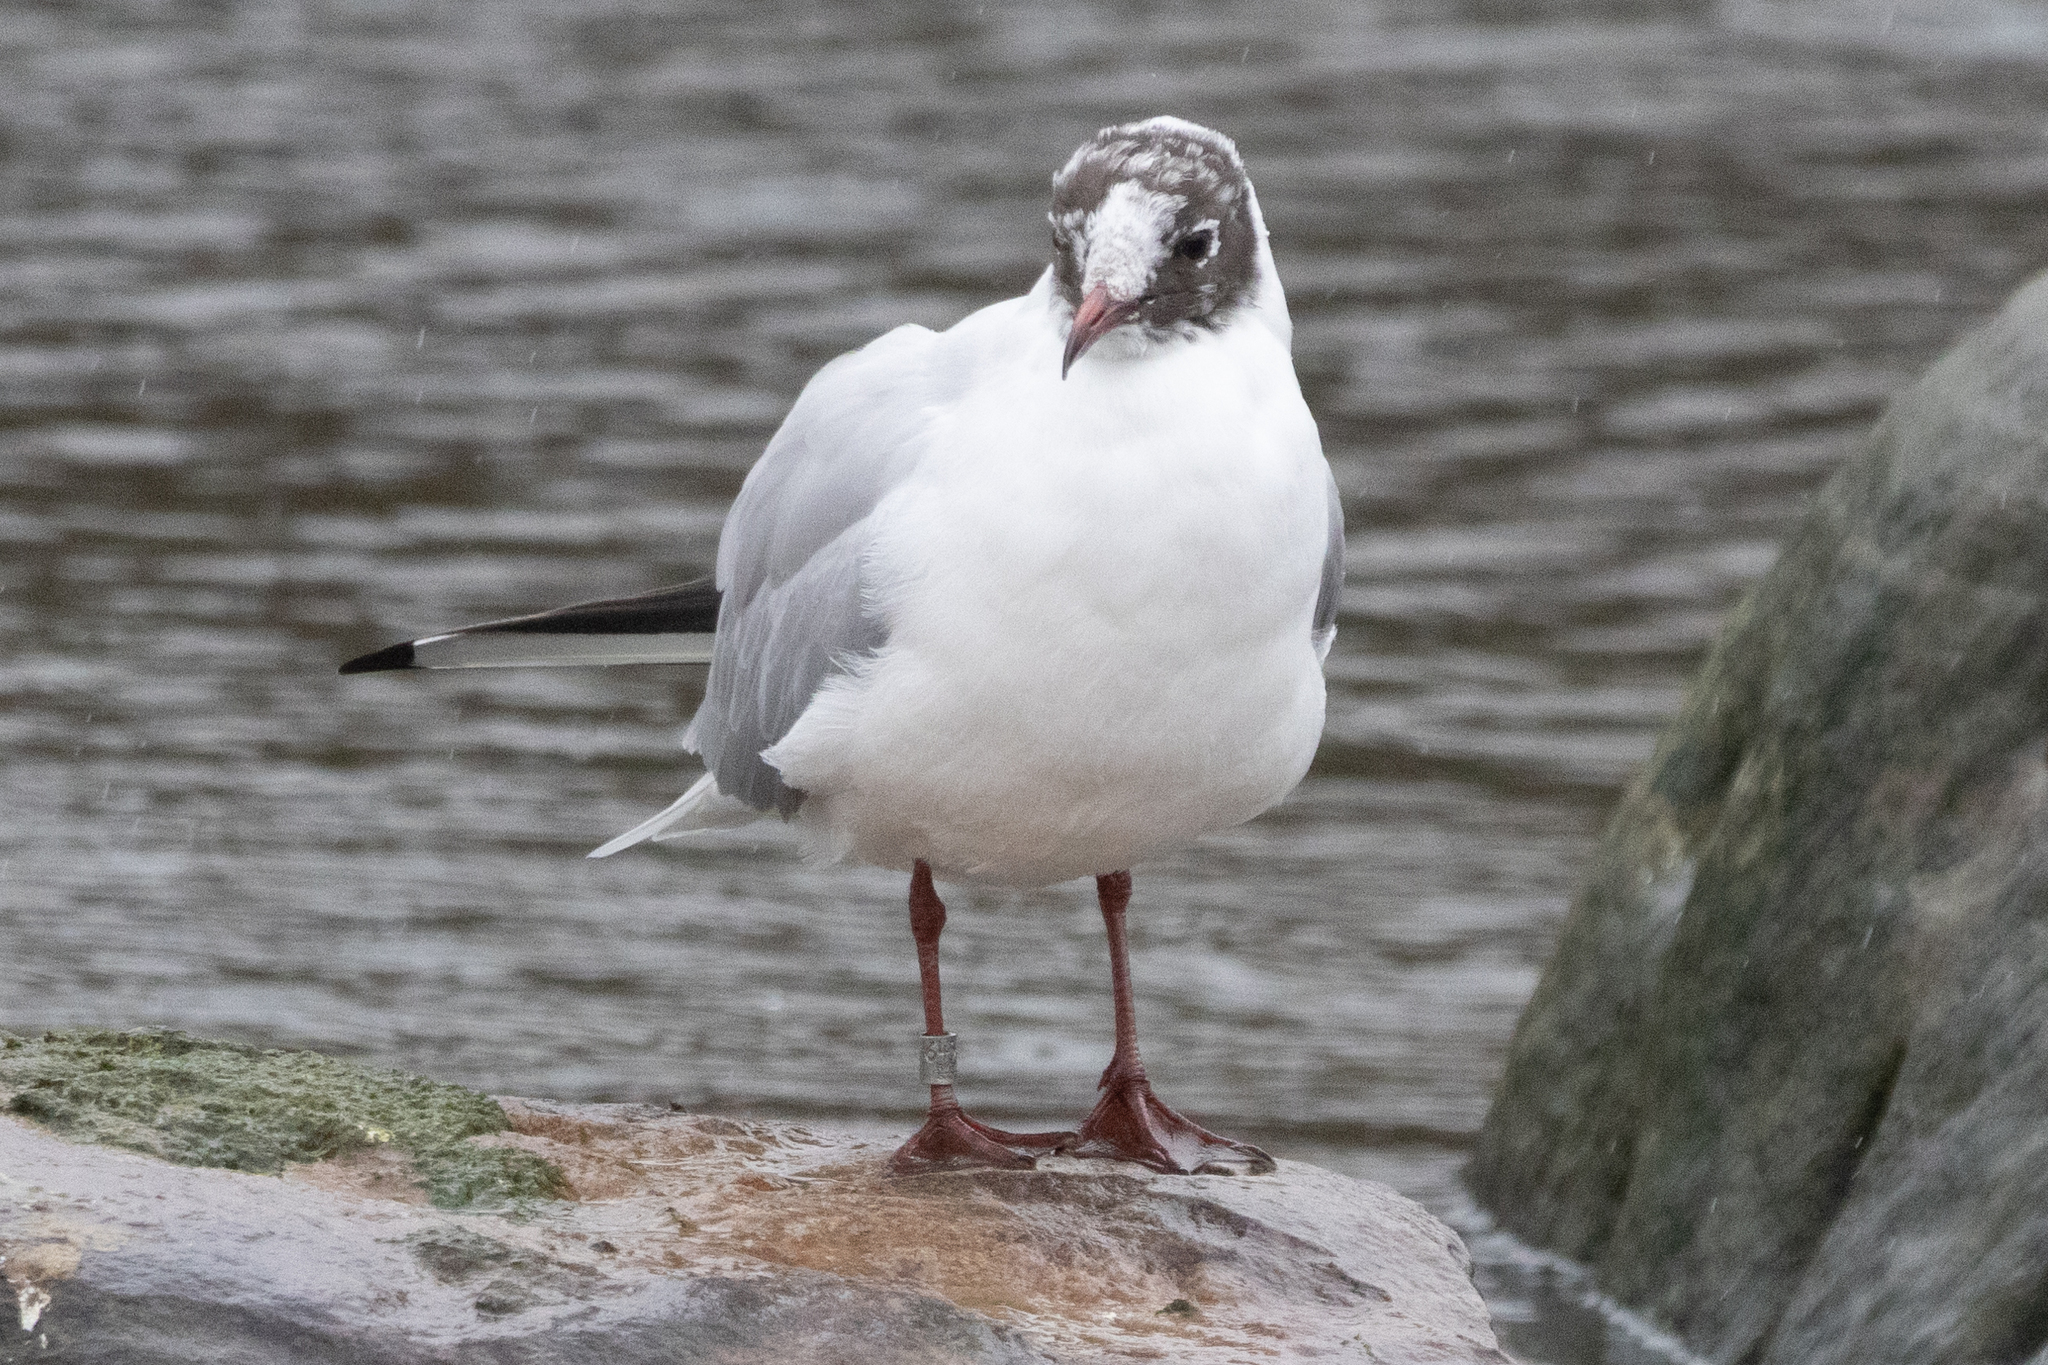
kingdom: Animalia
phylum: Chordata
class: Aves
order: Charadriiformes
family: Laridae
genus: Chroicocephalus
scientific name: Chroicocephalus ridibundus
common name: Black-headed gull
